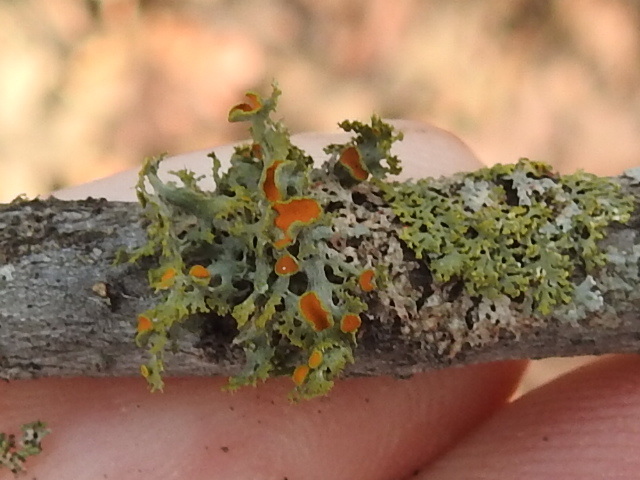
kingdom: Fungi
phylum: Ascomycota
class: Lecanoromycetes
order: Teloschistales
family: Teloschistaceae
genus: Niorma
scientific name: Niorma chrysophthalma
